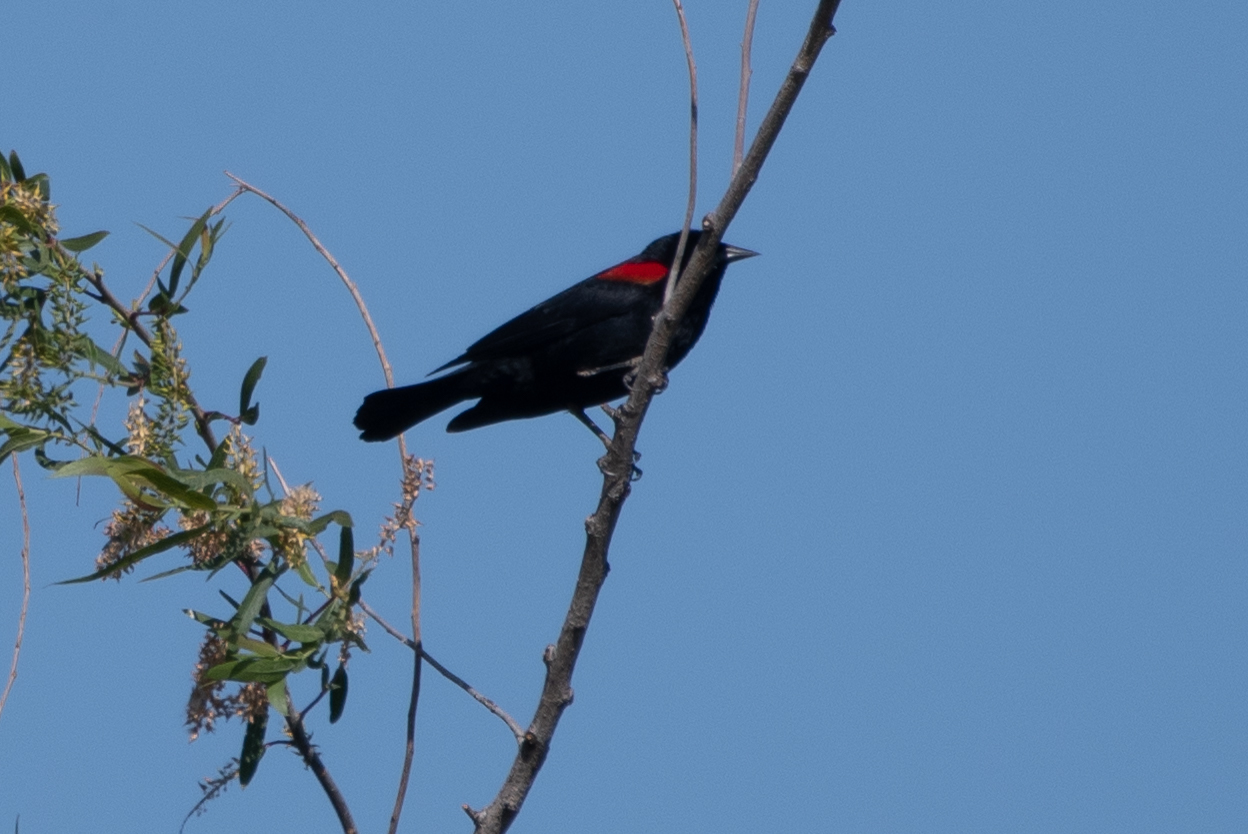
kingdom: Animalia
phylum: Chordata
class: Aves
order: Passeriformes
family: Icteridae
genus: Agelaius
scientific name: Agelaius phoeniceus
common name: Red-winged blackbird
